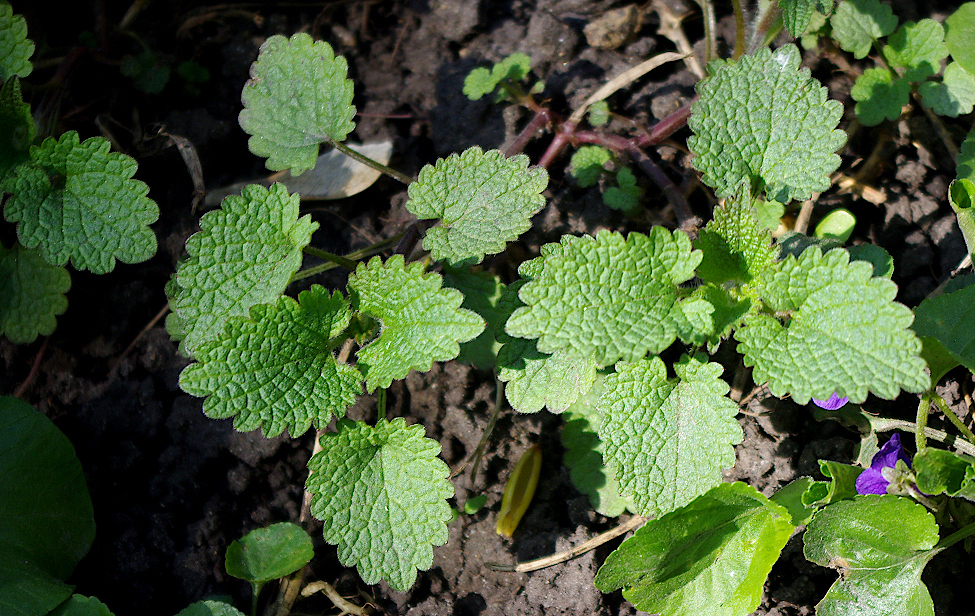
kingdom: Plantae
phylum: Tracheophyta
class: Magnoliopsida
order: Lamiales
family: Lamiaceae
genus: Lamium
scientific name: Lamium album
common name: White dead-nettle
